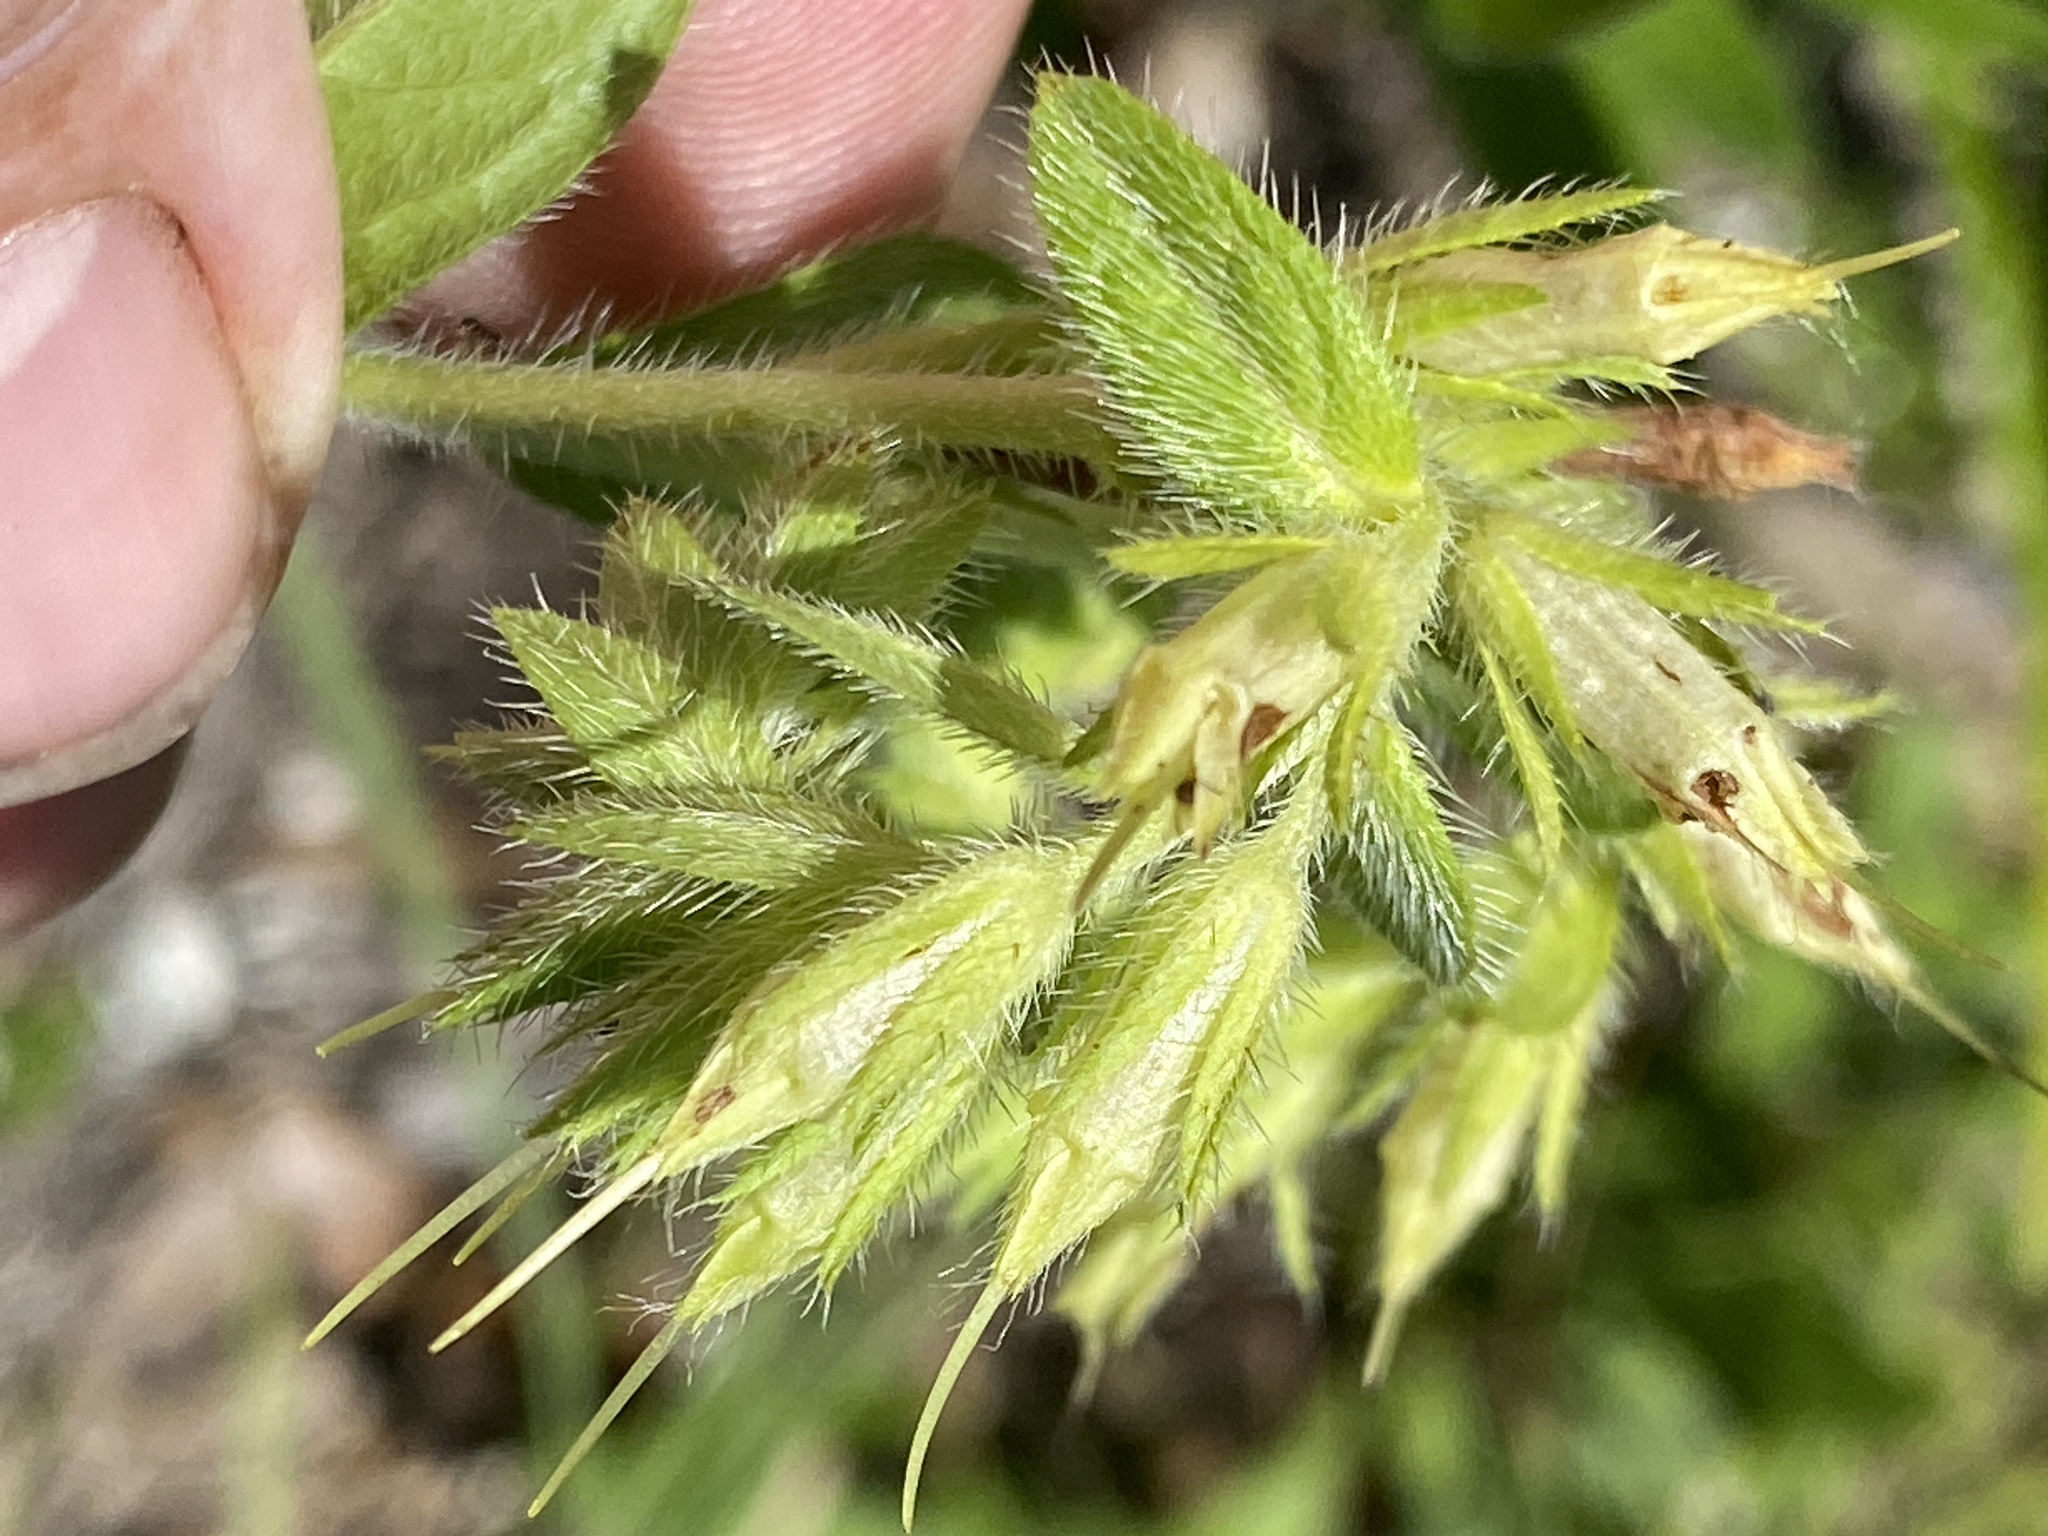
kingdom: Plantae
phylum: Tracheophyta
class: Magnoliopsida
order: Boraginales
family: Boraginaceae
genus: Lithospermum
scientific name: Lithospermum virginianum
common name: Eastern false gromwell
